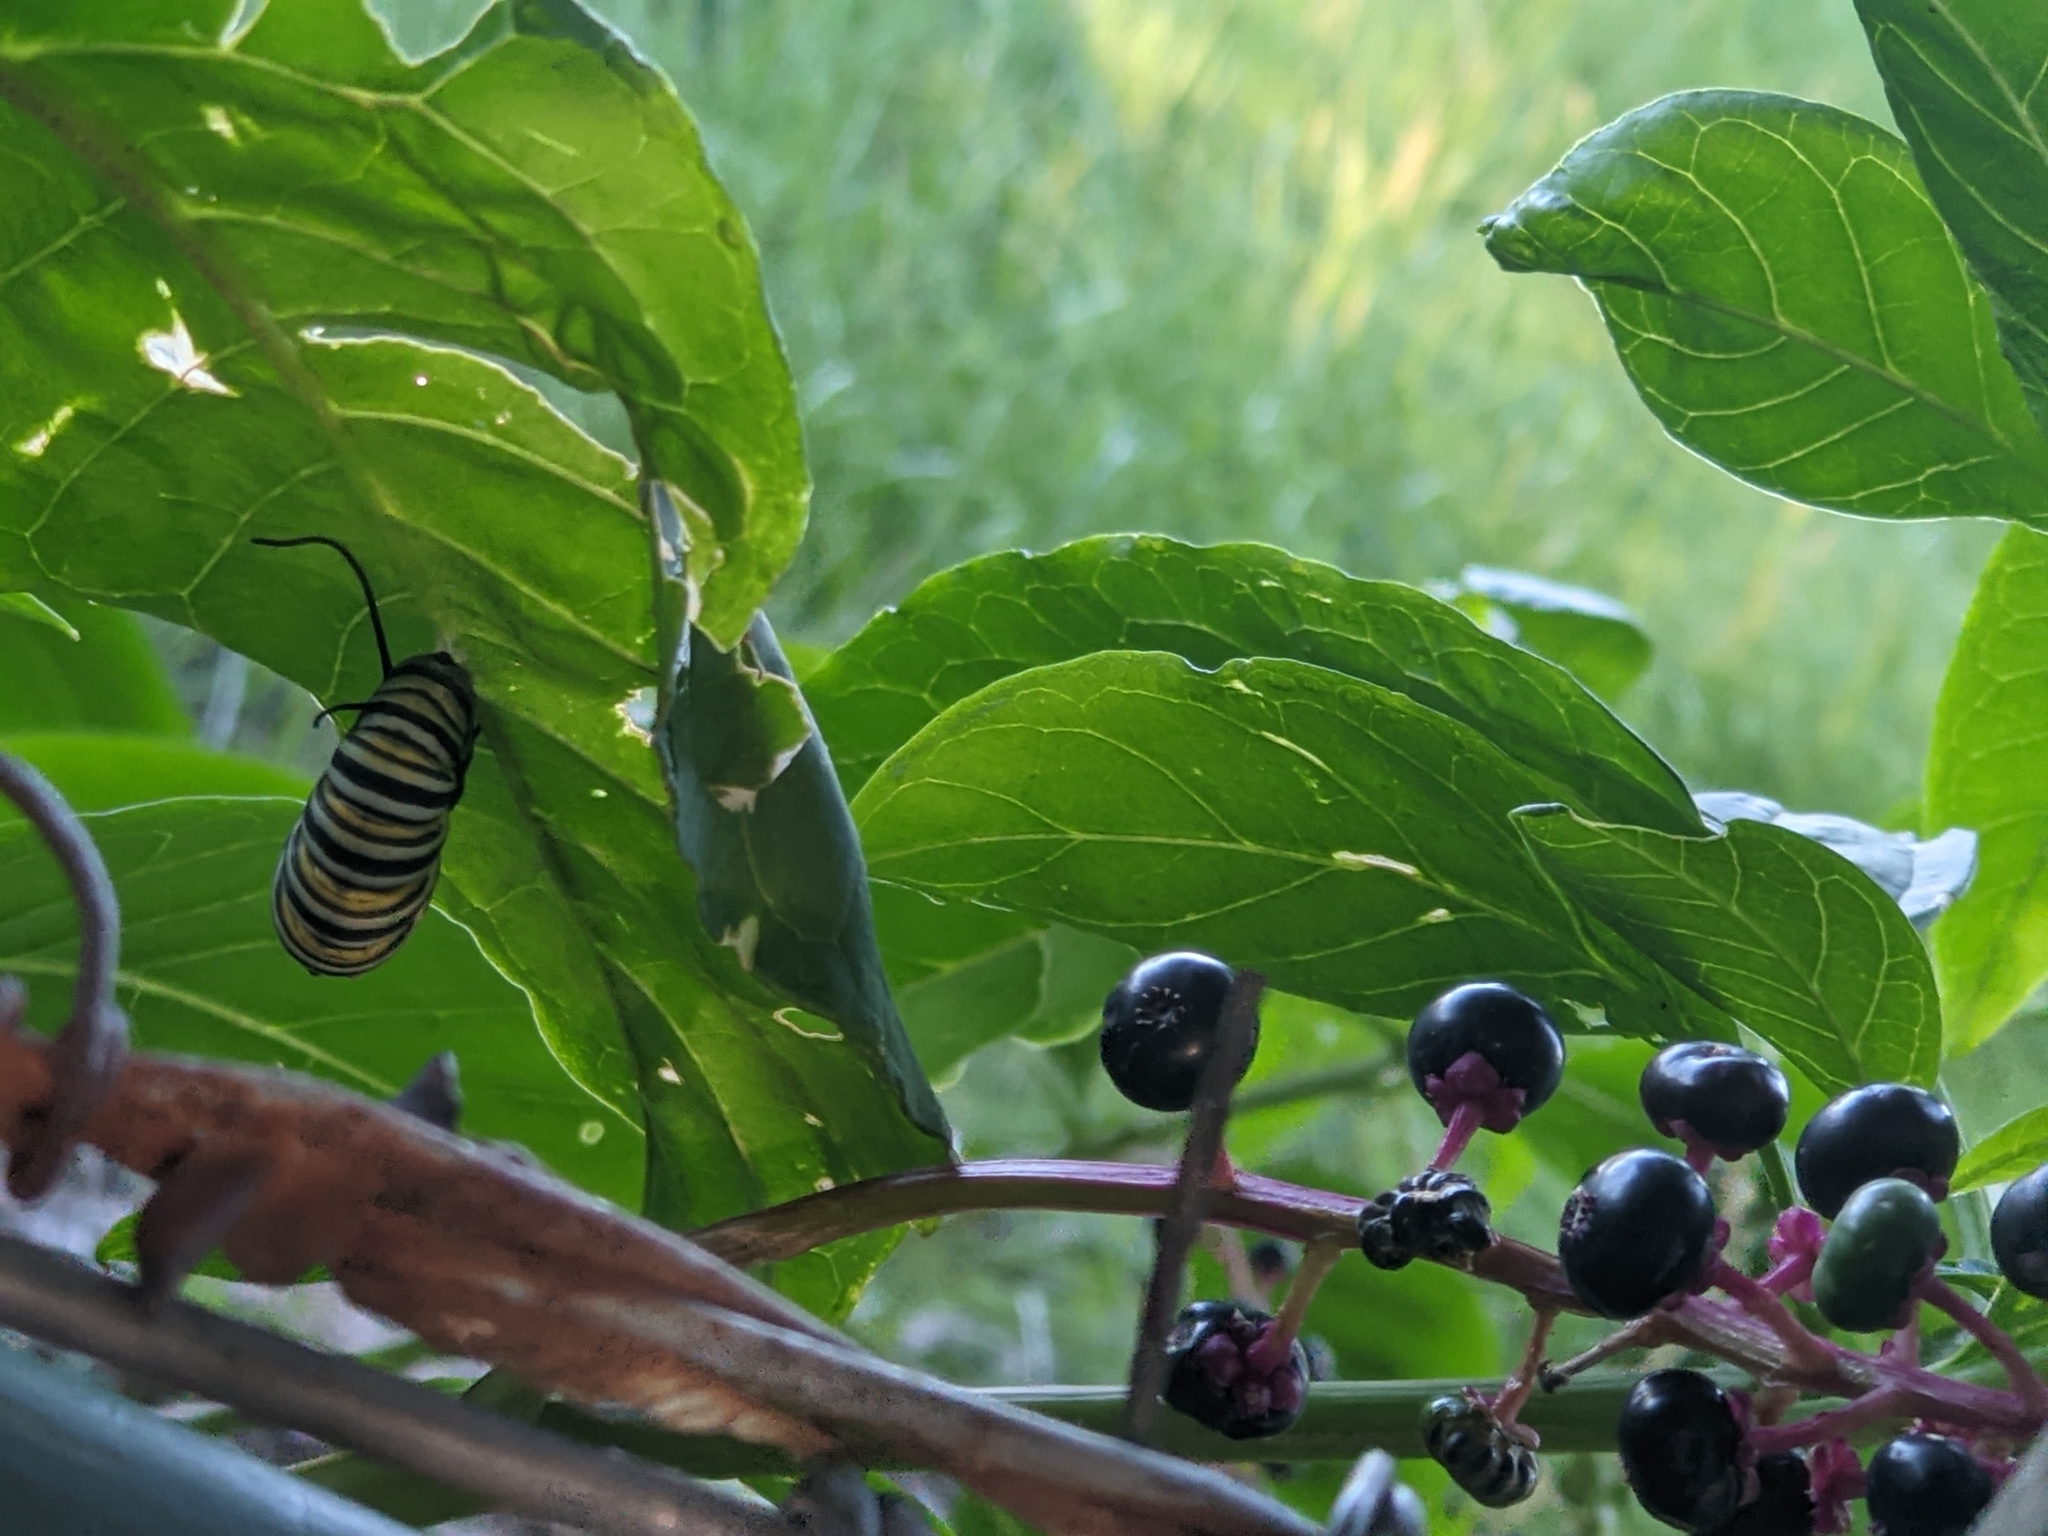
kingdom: Animalia
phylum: Arthropoda
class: Insecta
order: Lepidoptera
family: Nymphalidae
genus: Danaus
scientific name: Danaus plexippus
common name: Monarch
